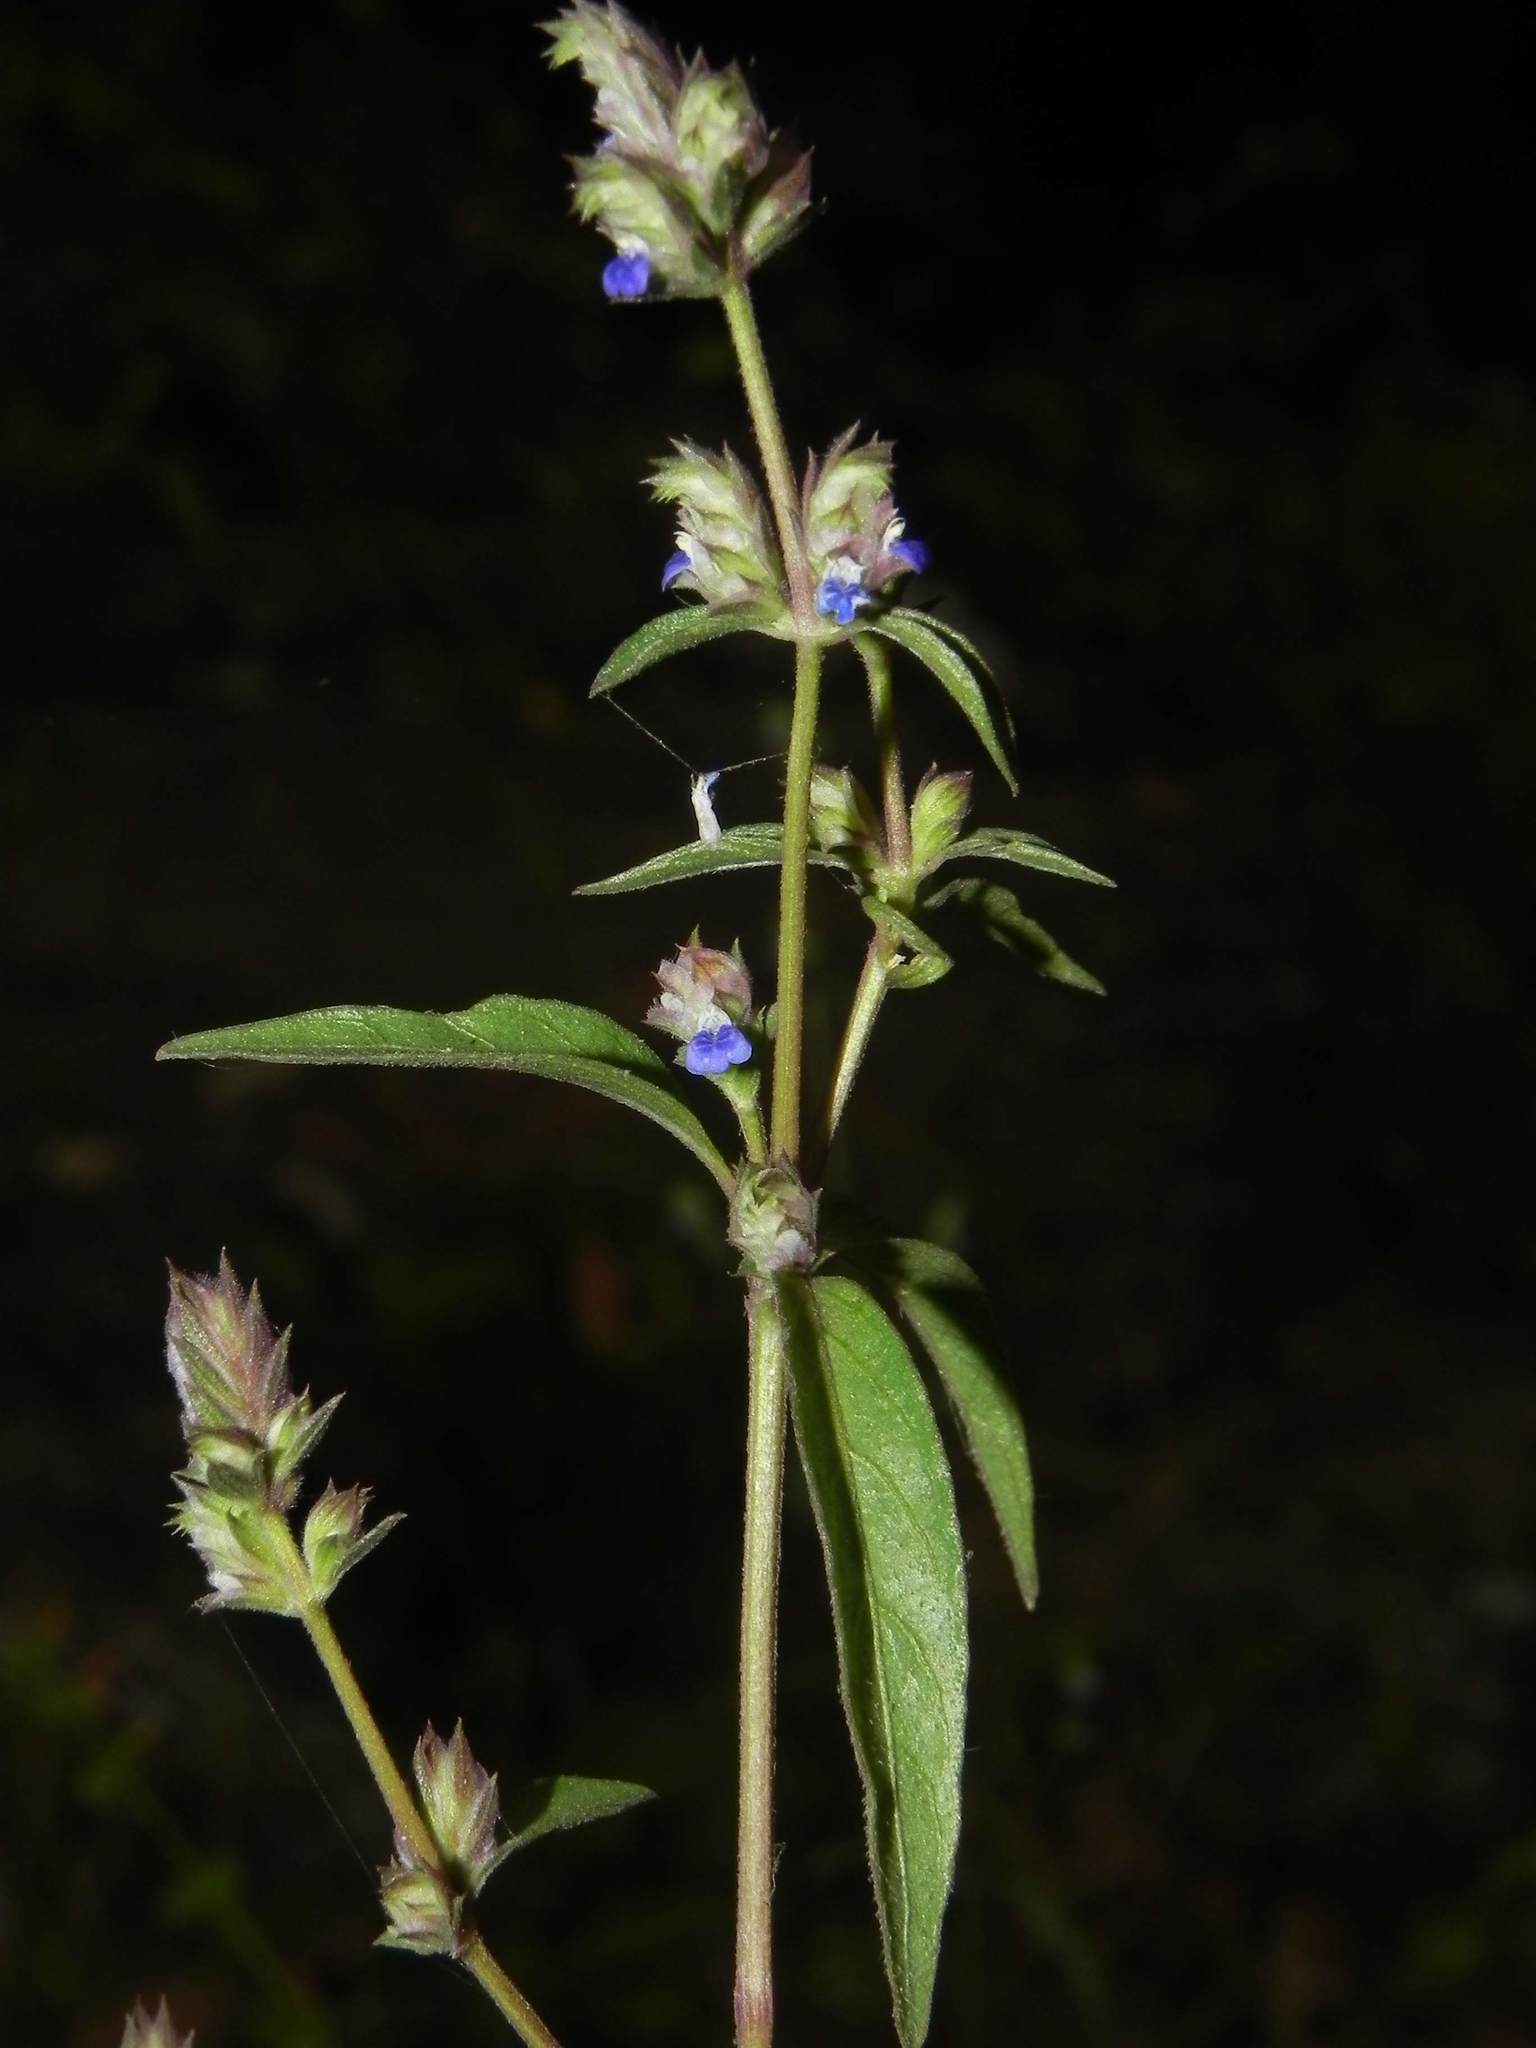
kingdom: Plantae
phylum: Tracheophyta
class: Magnoliopsida
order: Lamiales
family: Acanthaceae
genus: Rungia
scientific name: Rungia pectinata
